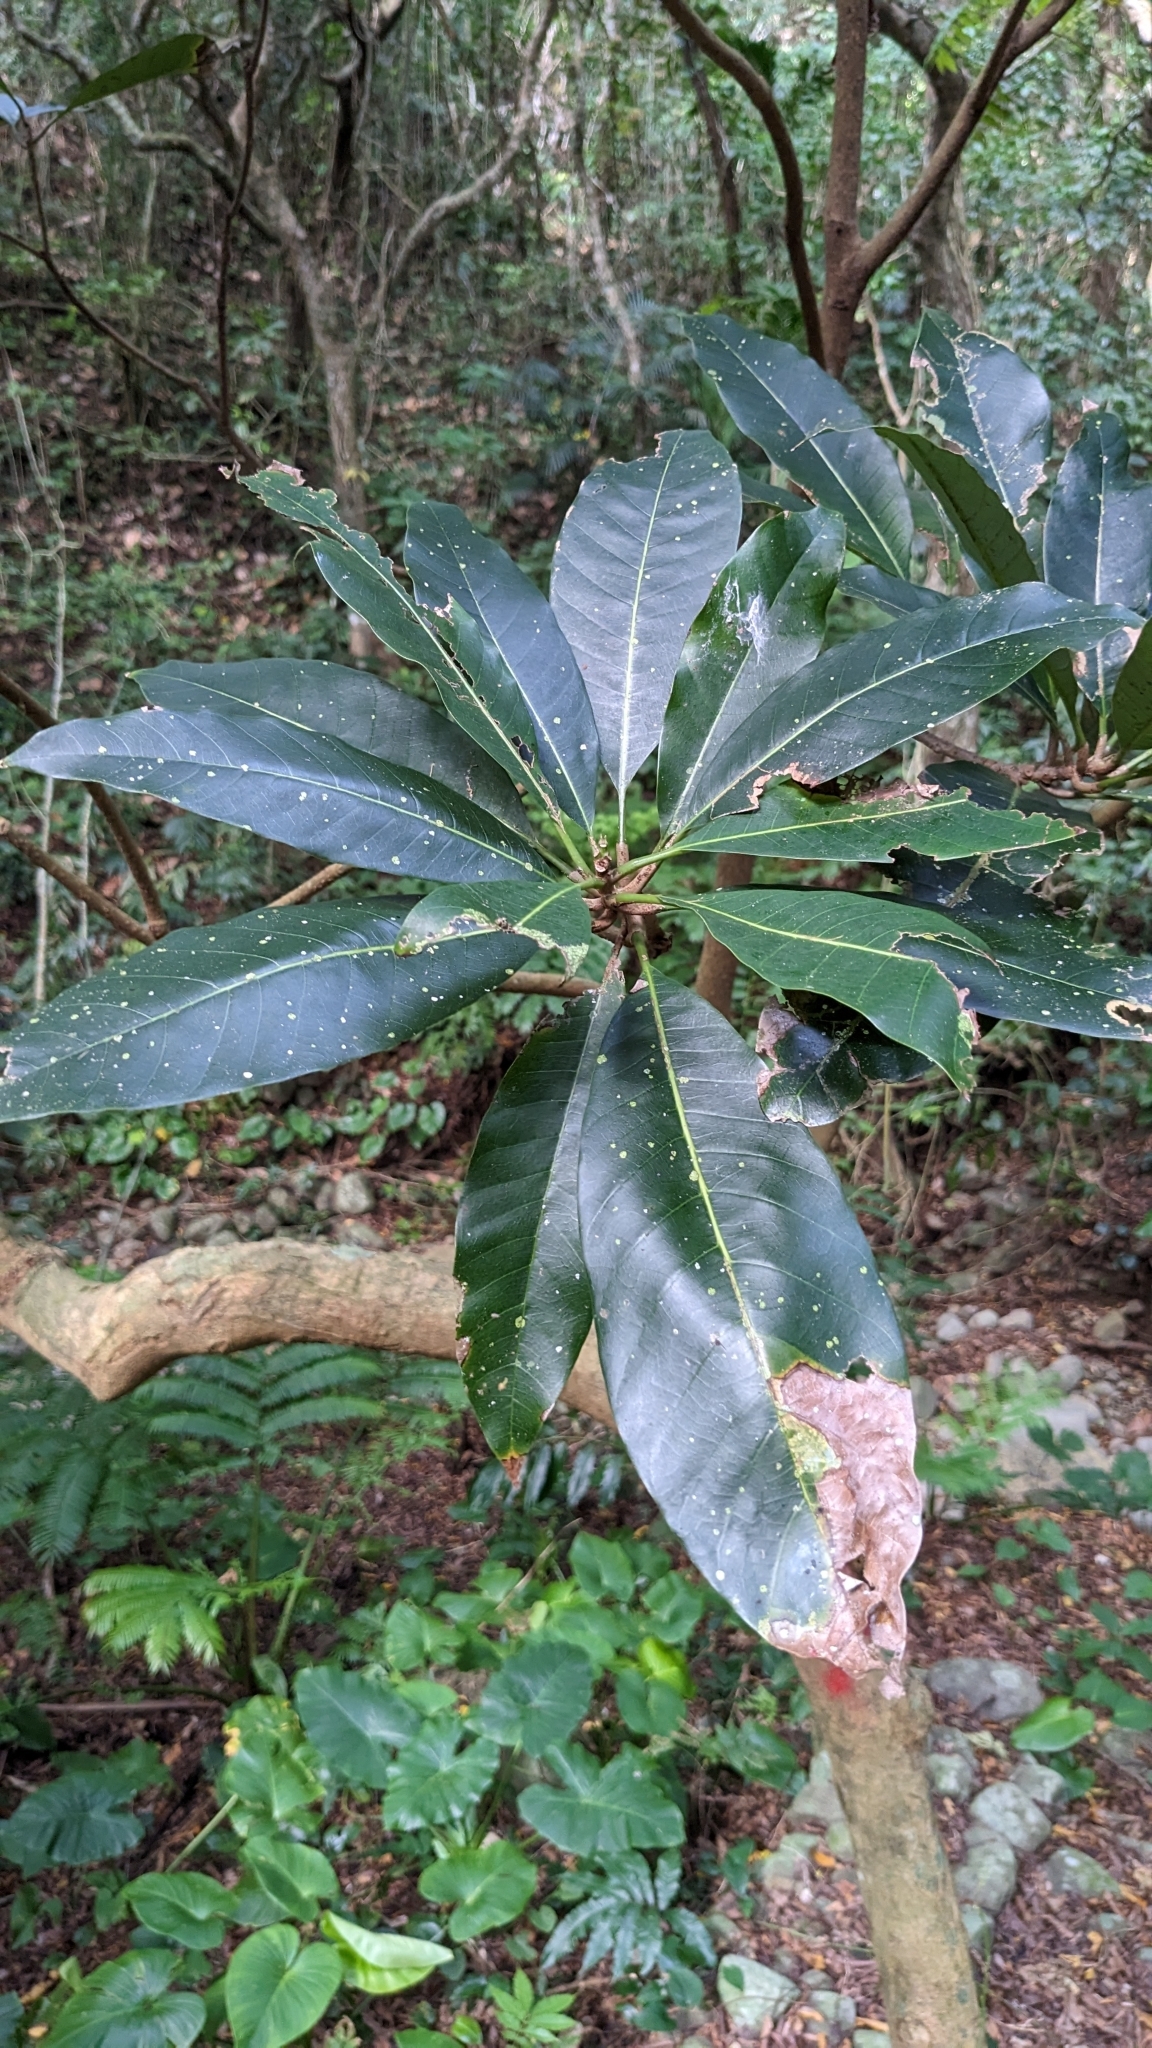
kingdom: Plantae
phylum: Tracheophyta
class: Magnoliopsida
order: Sapindales
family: Anacardiaceae
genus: Semecarpus
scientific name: Semecarpus longifolius
